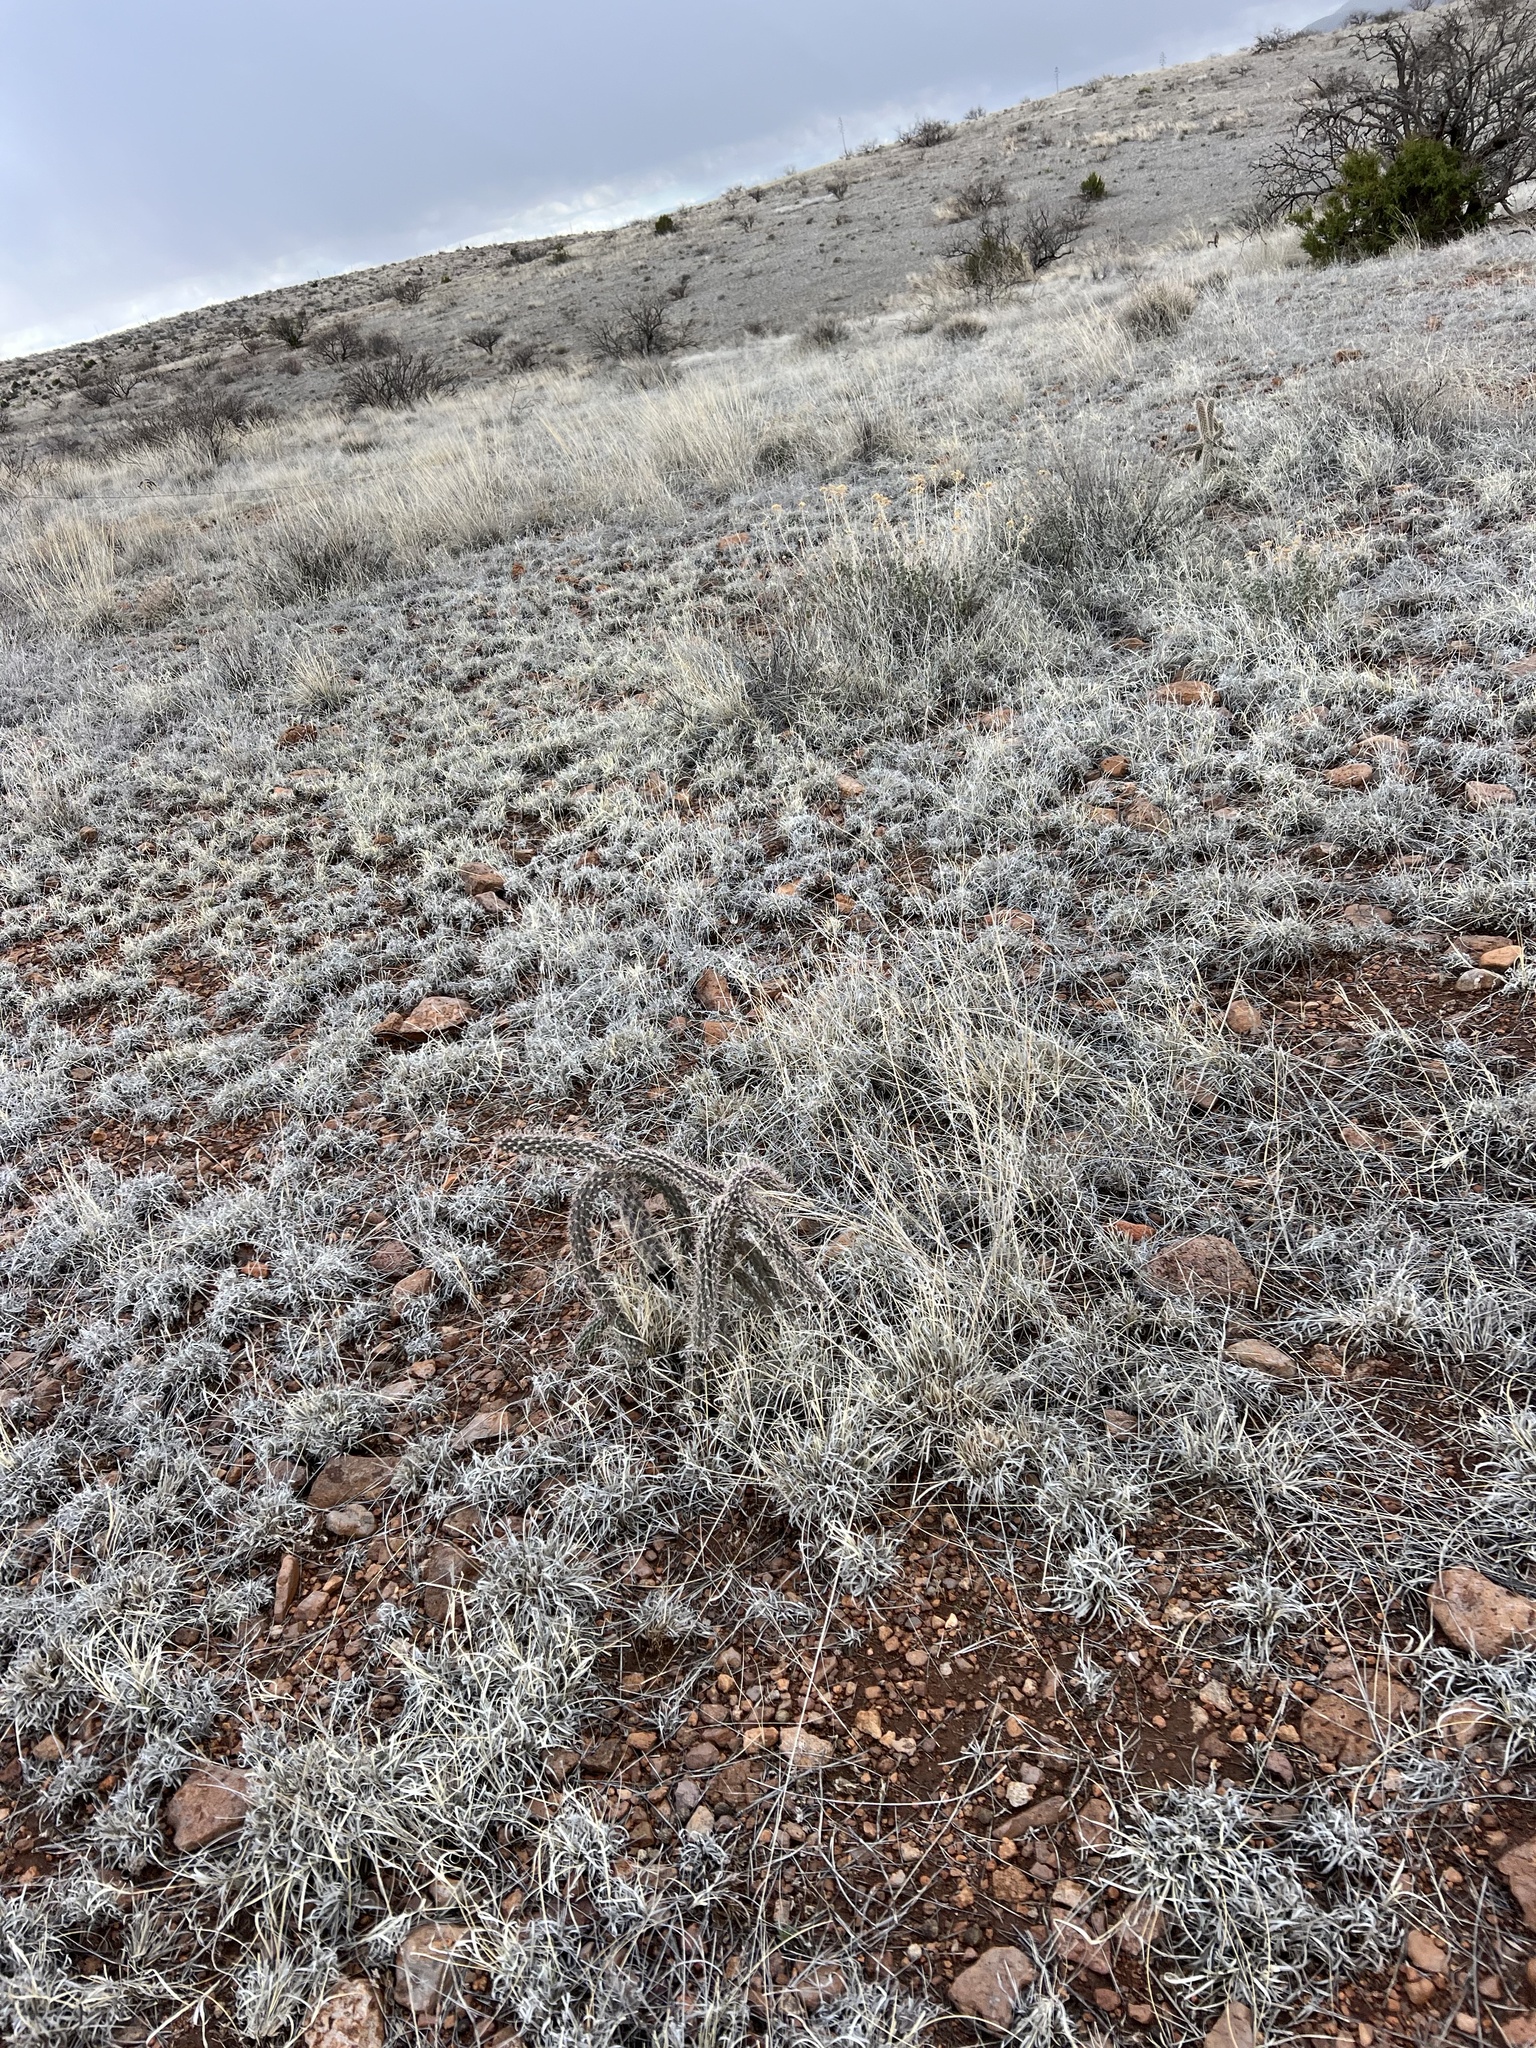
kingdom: Plantae
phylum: Tracheophyta
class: Magnoliopsida
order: Caryophyllales
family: Cactaceae
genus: Cylindropuntia
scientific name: Cylindropuntia imbricata
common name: Candelabrum cactus
